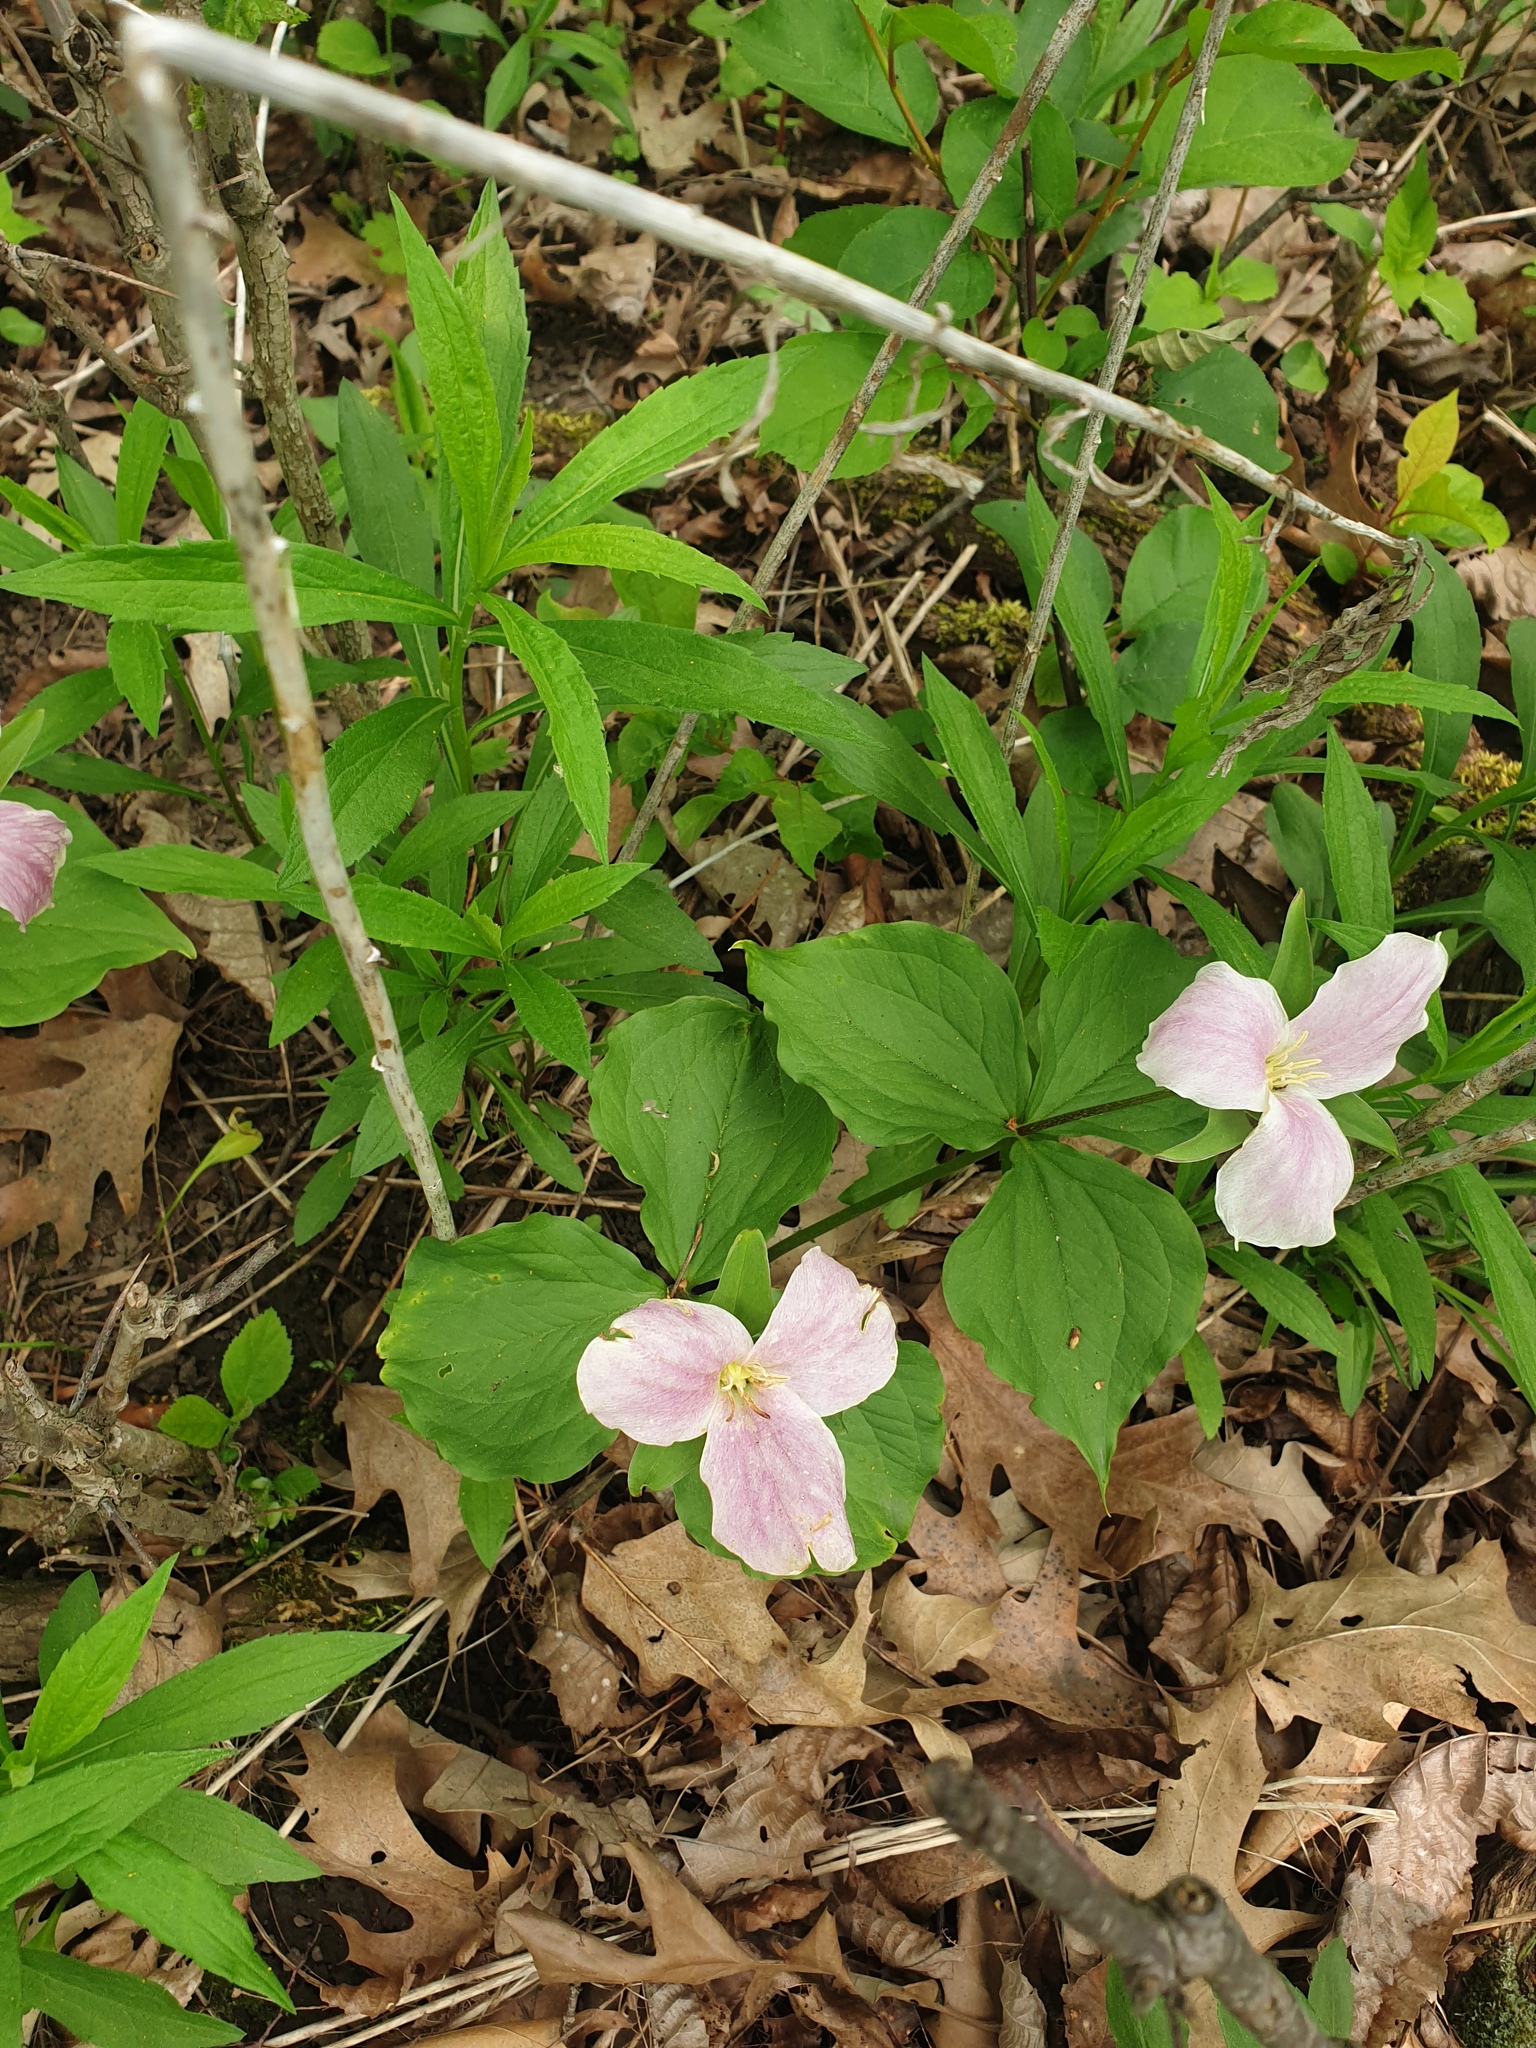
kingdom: Plantae
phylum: Tracheophyta
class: Liliopsida
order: Liliales
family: Melanthiaceae
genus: Trillium
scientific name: Trillium grandiflorum
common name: Great white trillium
